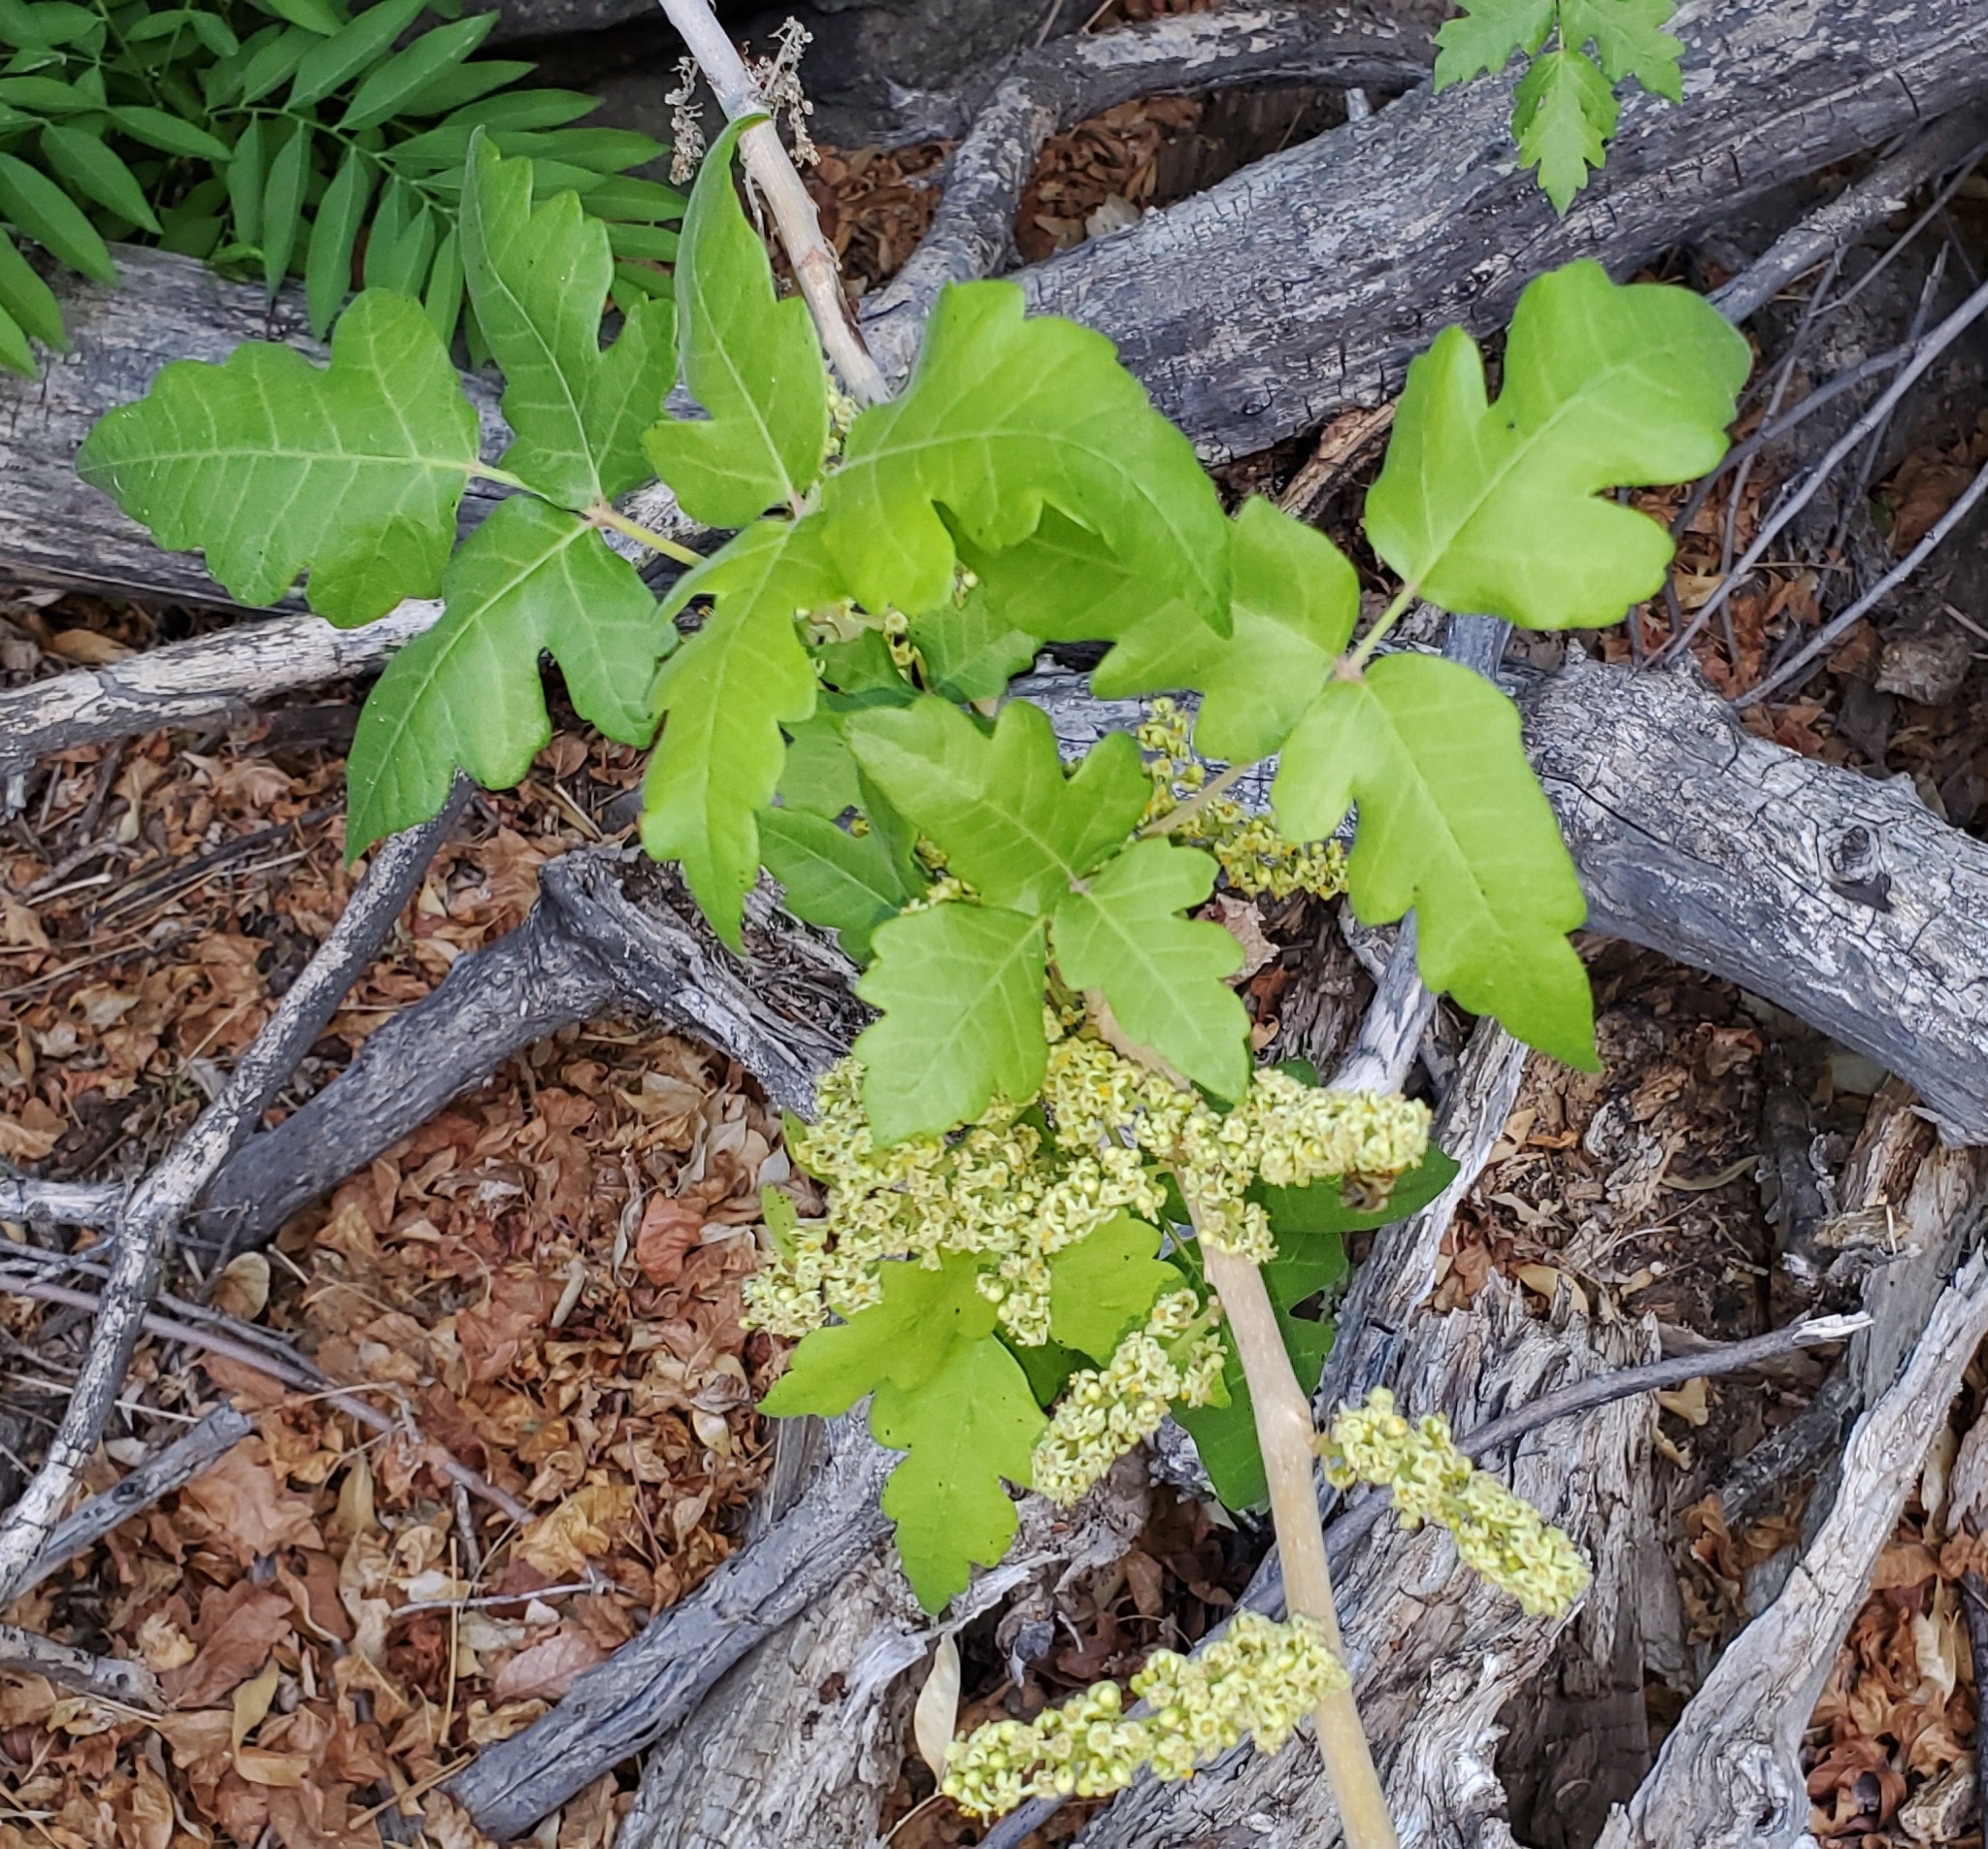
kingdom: Plantae
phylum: Tracheophyta
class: Magnoliopsida
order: Sapindales
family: Anacardiaceae
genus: Toxicodendron
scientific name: Toxicodendron radicans
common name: Poison ivy
